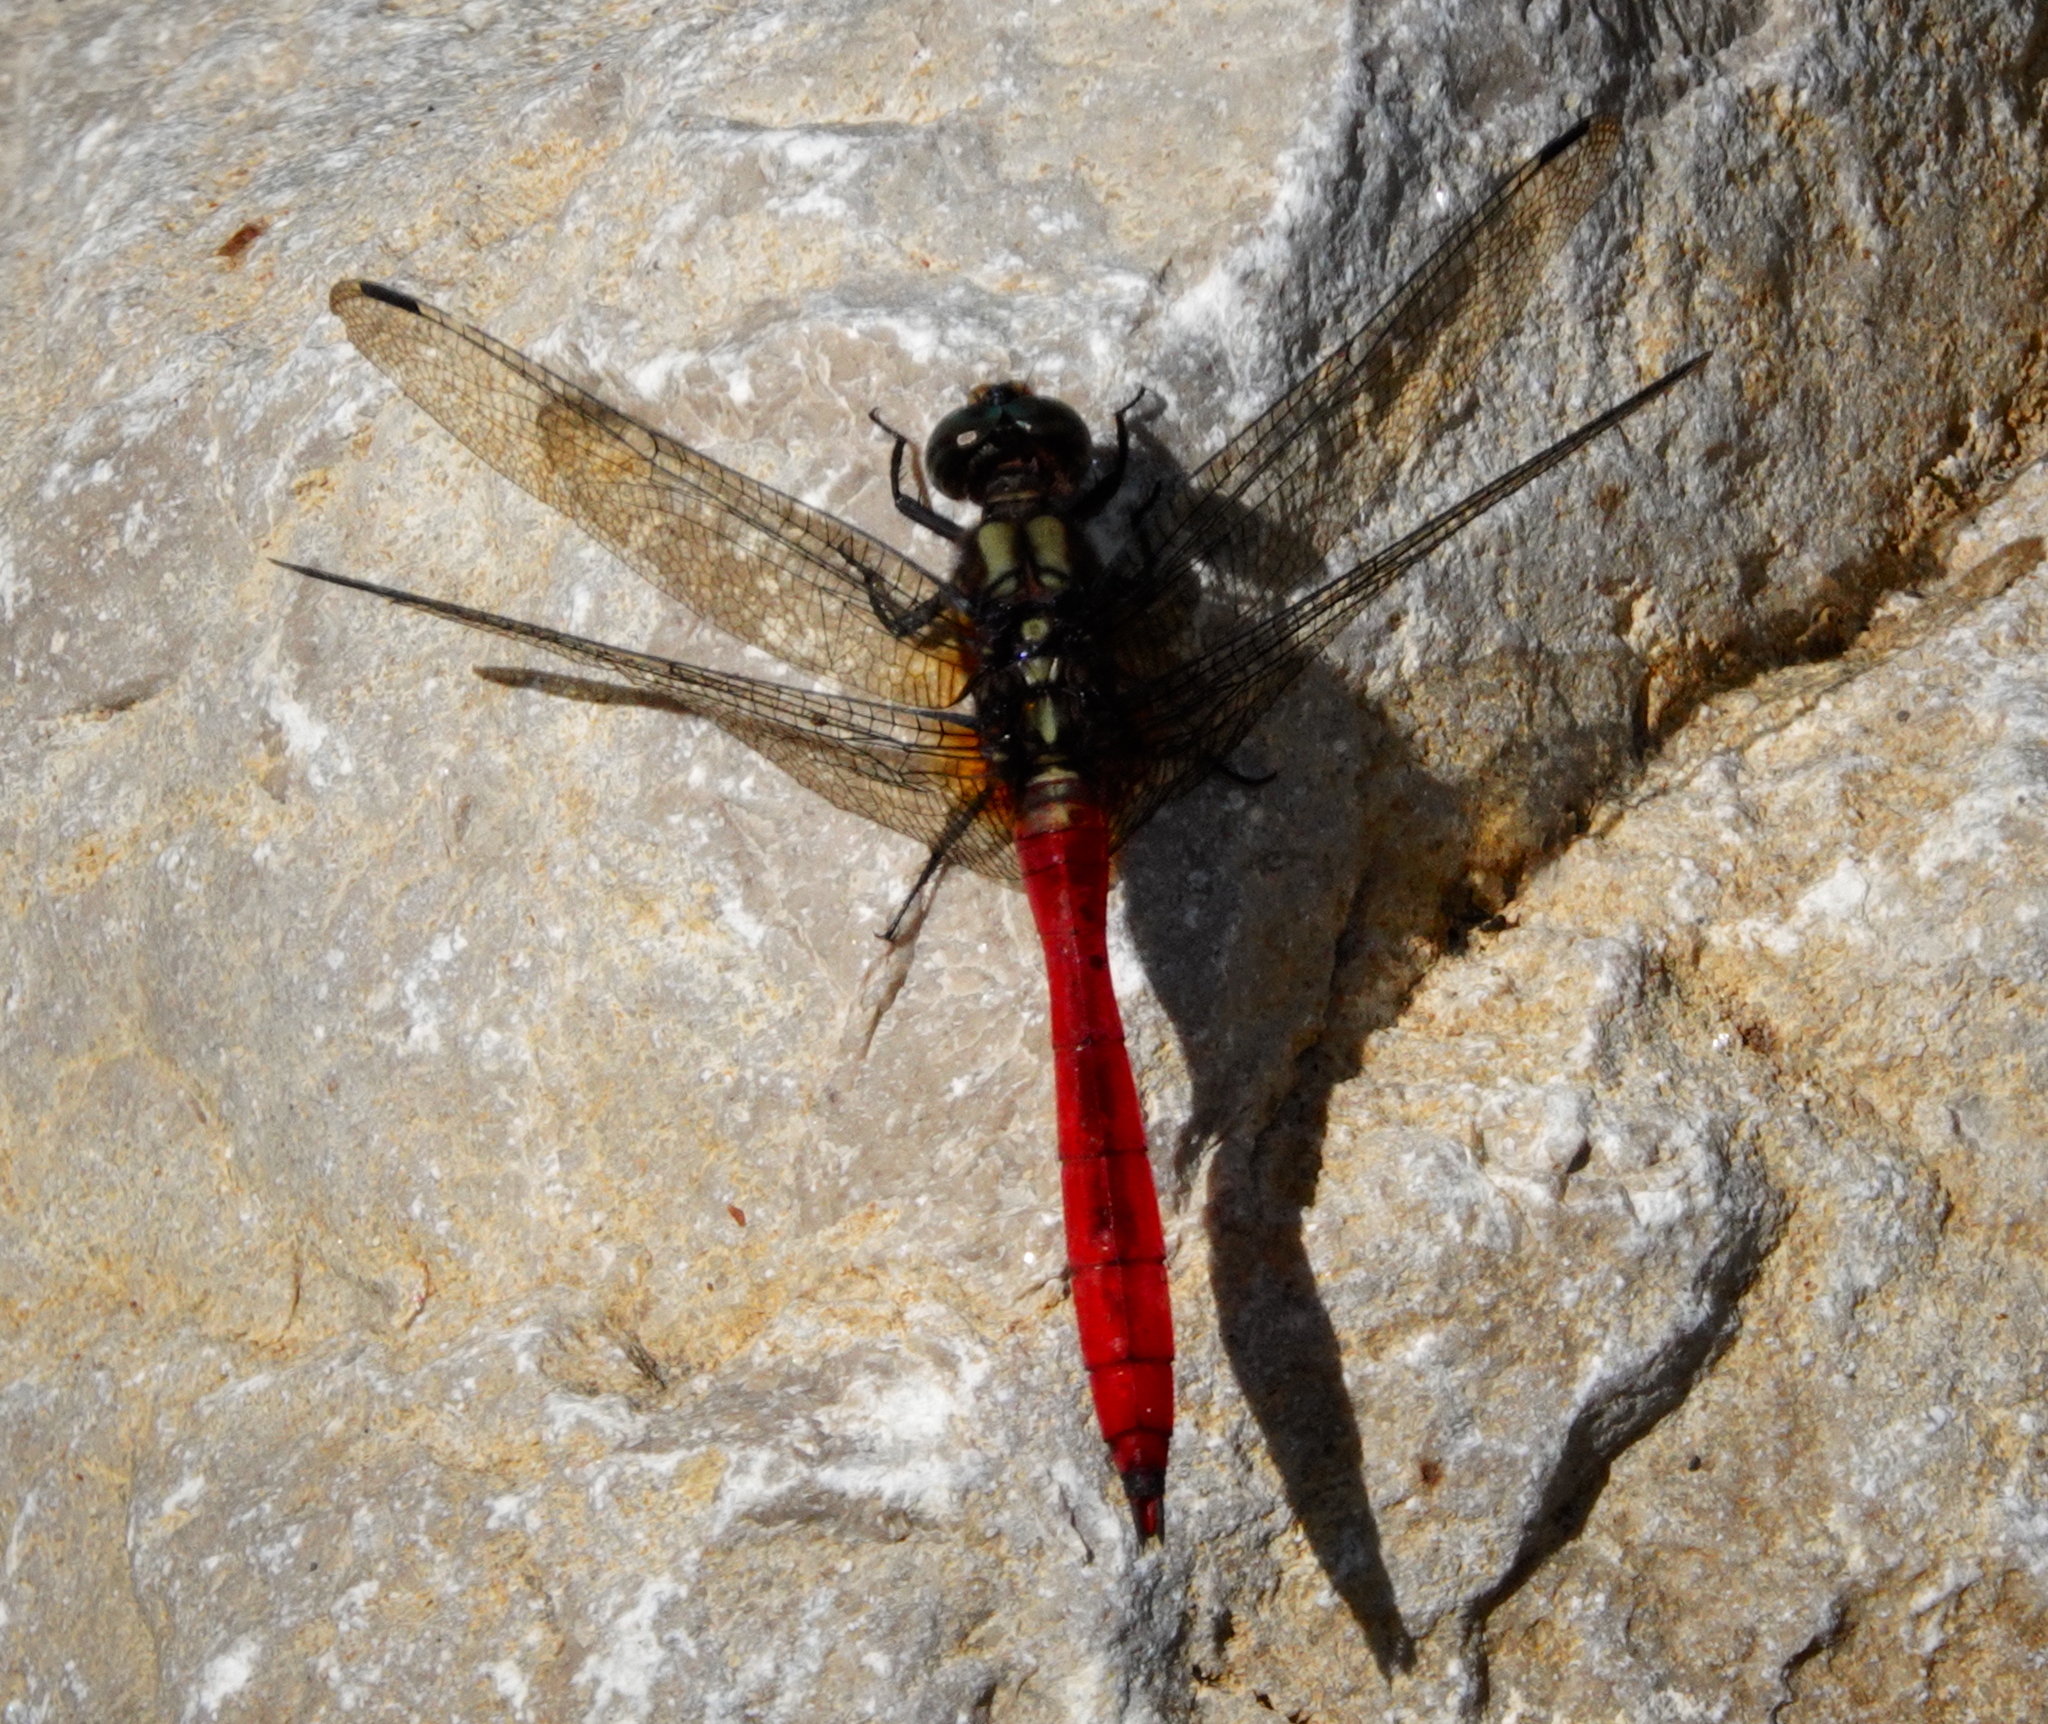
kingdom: Animalia
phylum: Arthropoda
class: Insecta
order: Odonata
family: Libellulidae
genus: Orthetrum
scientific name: Orthetrum villosovittatum
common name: Firery skimmer
